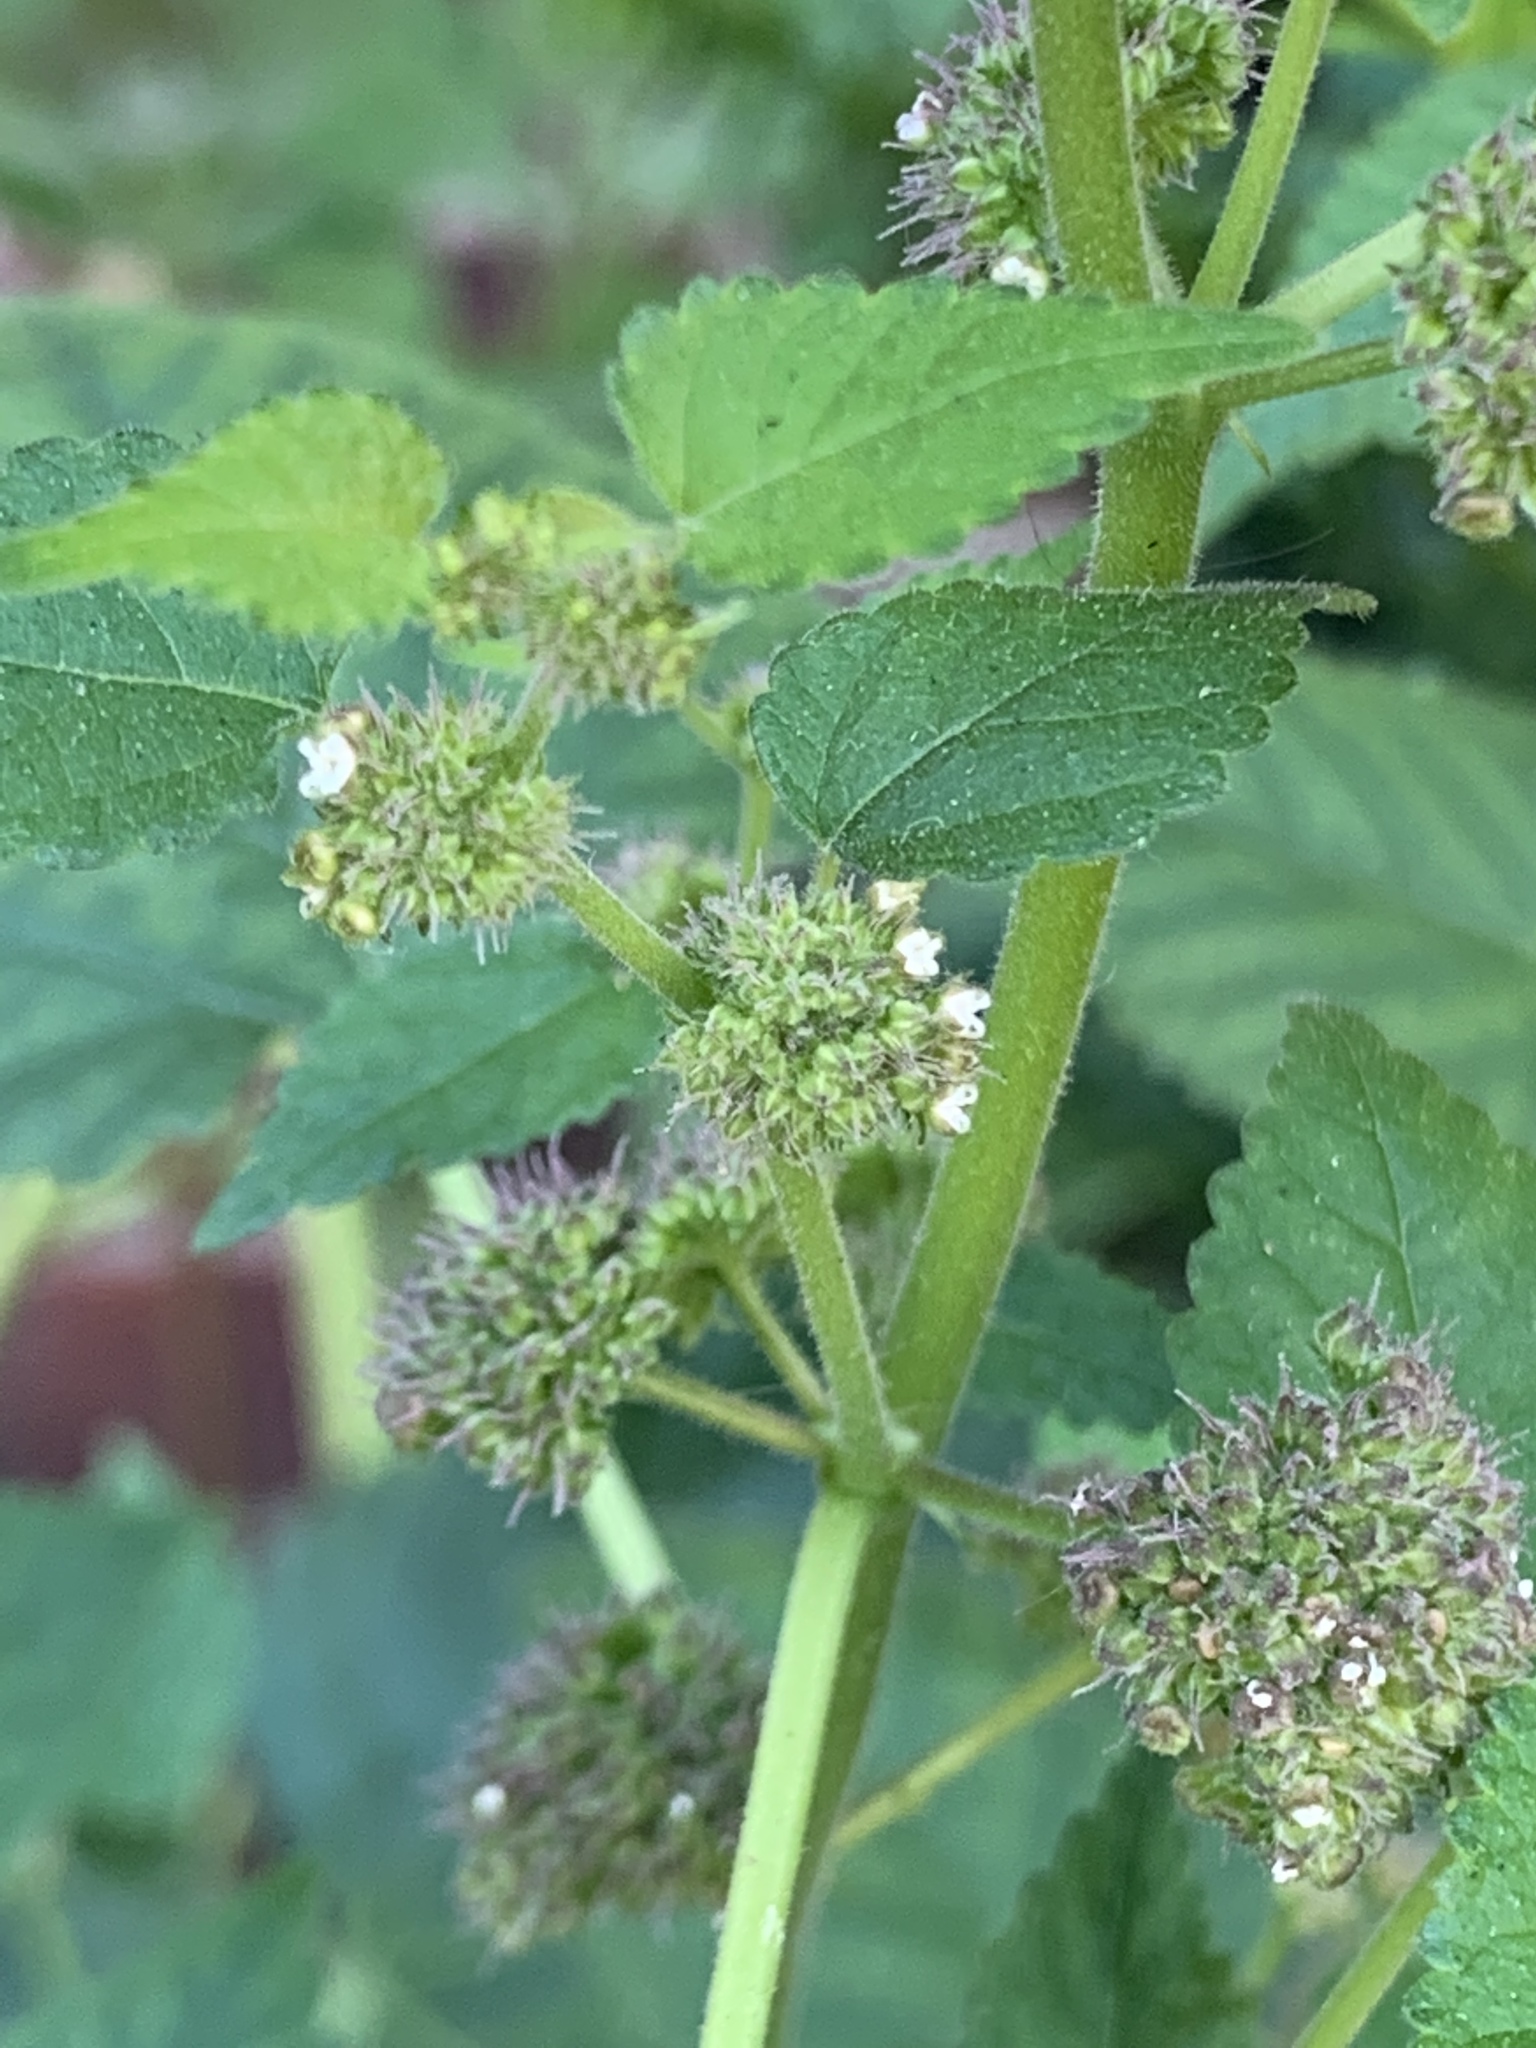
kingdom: Plantae
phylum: Tracheophyta
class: Magnoliopsida
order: Rosales
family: Moraceae
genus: Fatoua
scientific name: Fatoua villosa
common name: Hairy crabweed
